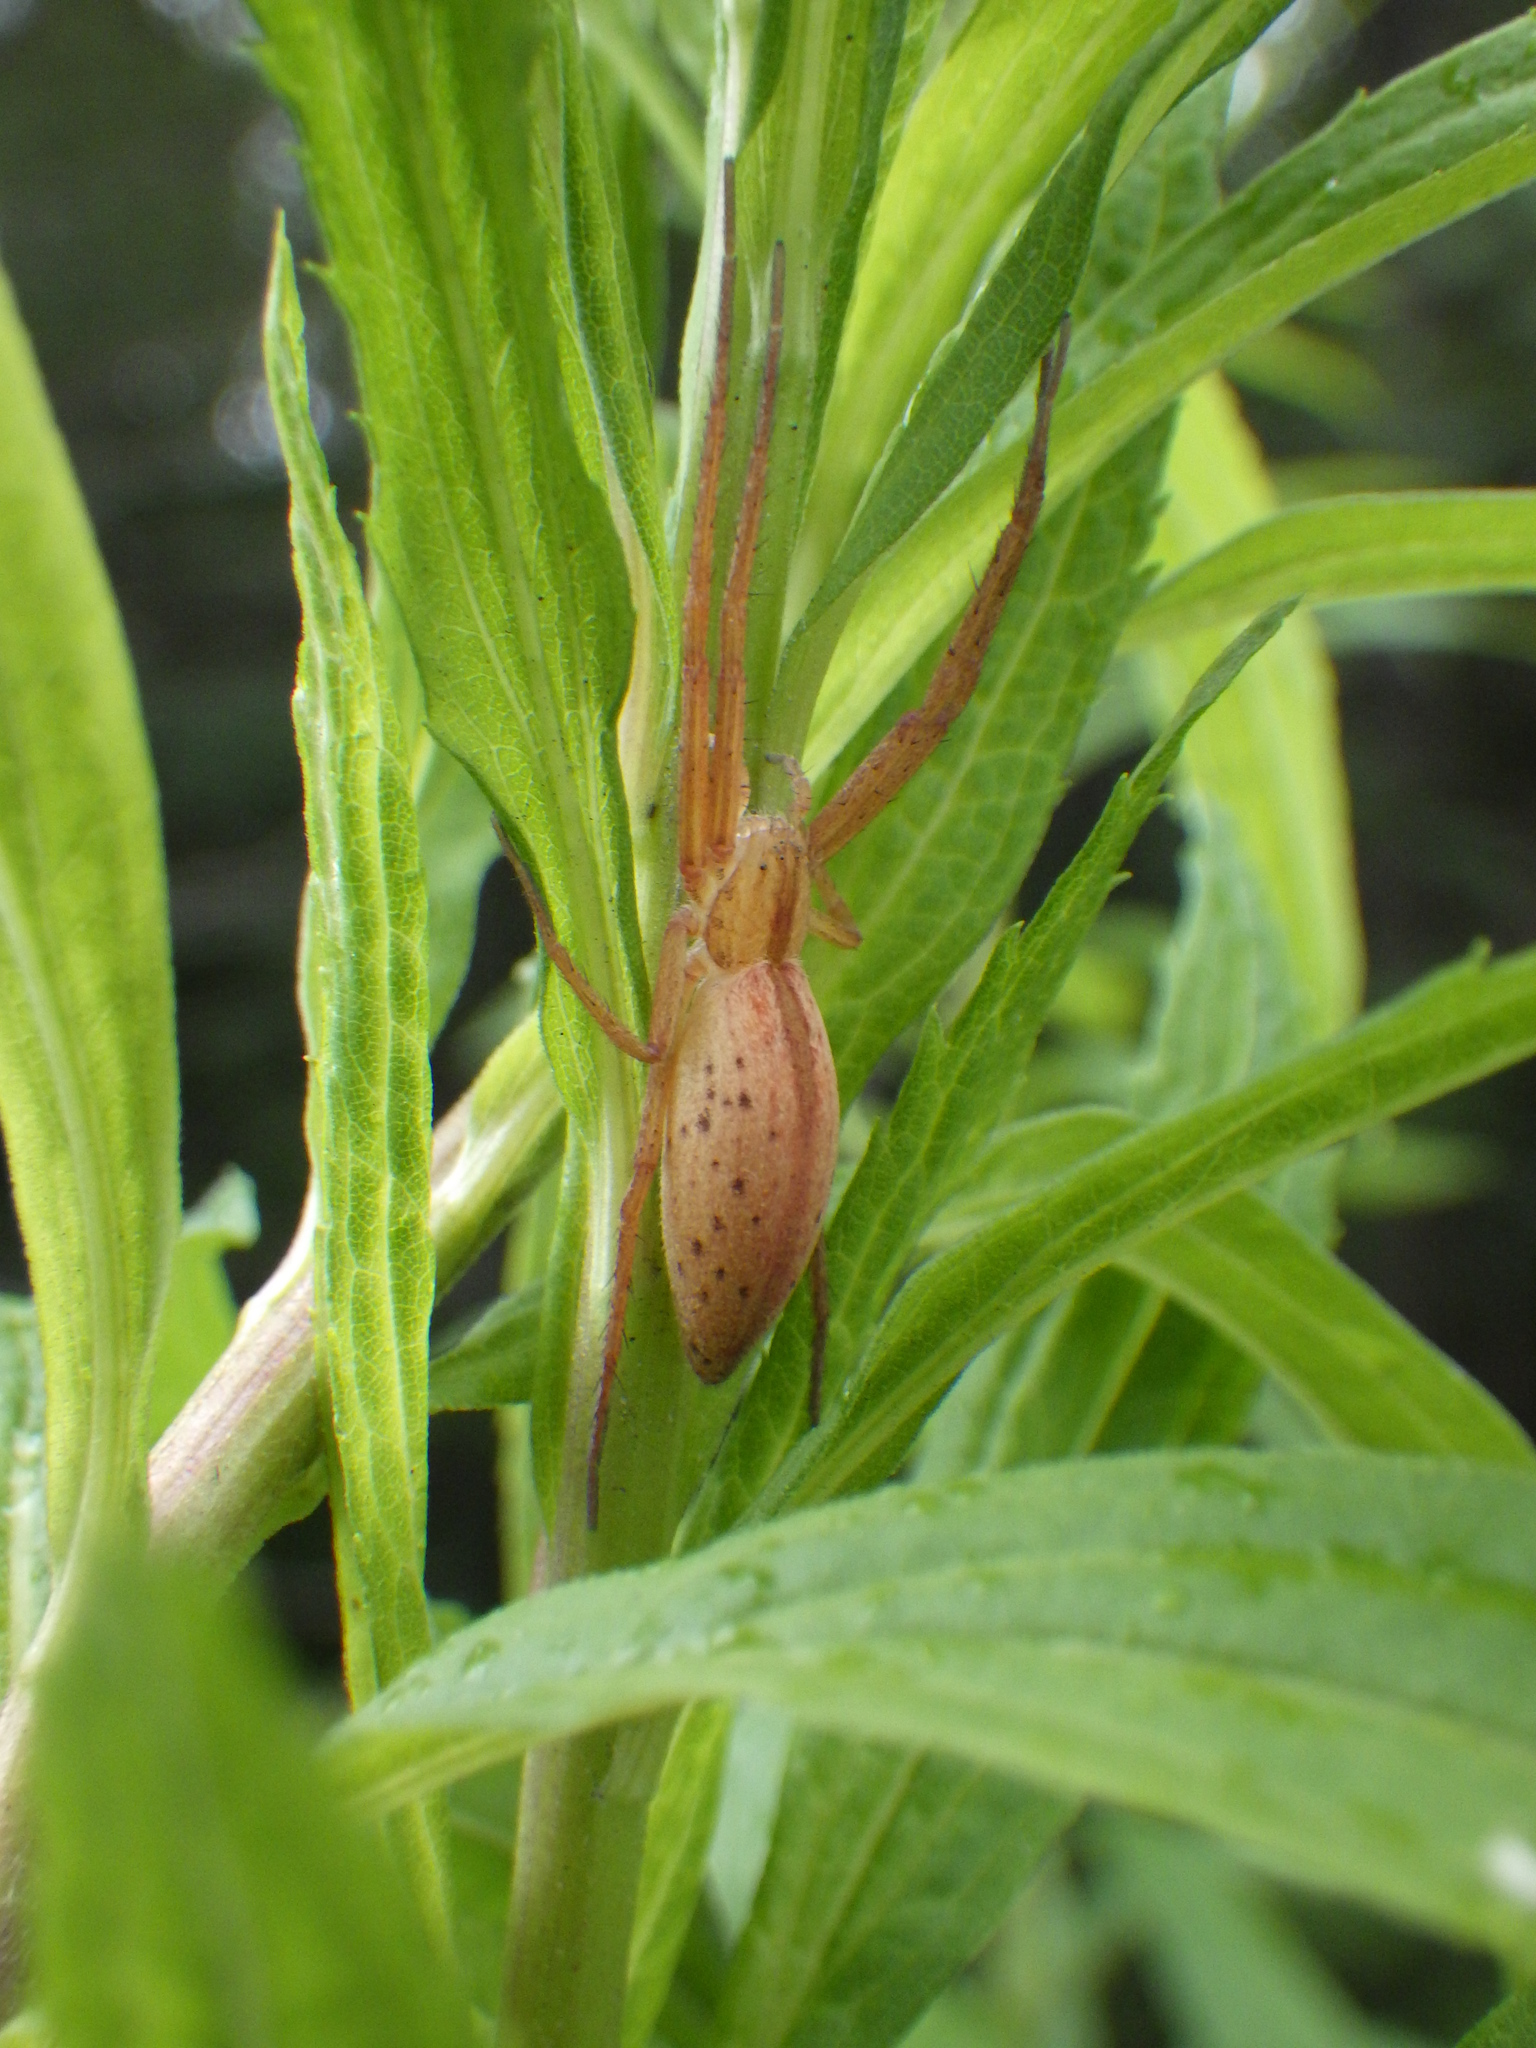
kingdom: Animalia
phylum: Arthropoda
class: Arachnida
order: Araneae
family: Philodromidae
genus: Tibellus
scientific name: Tibellus oblongus
